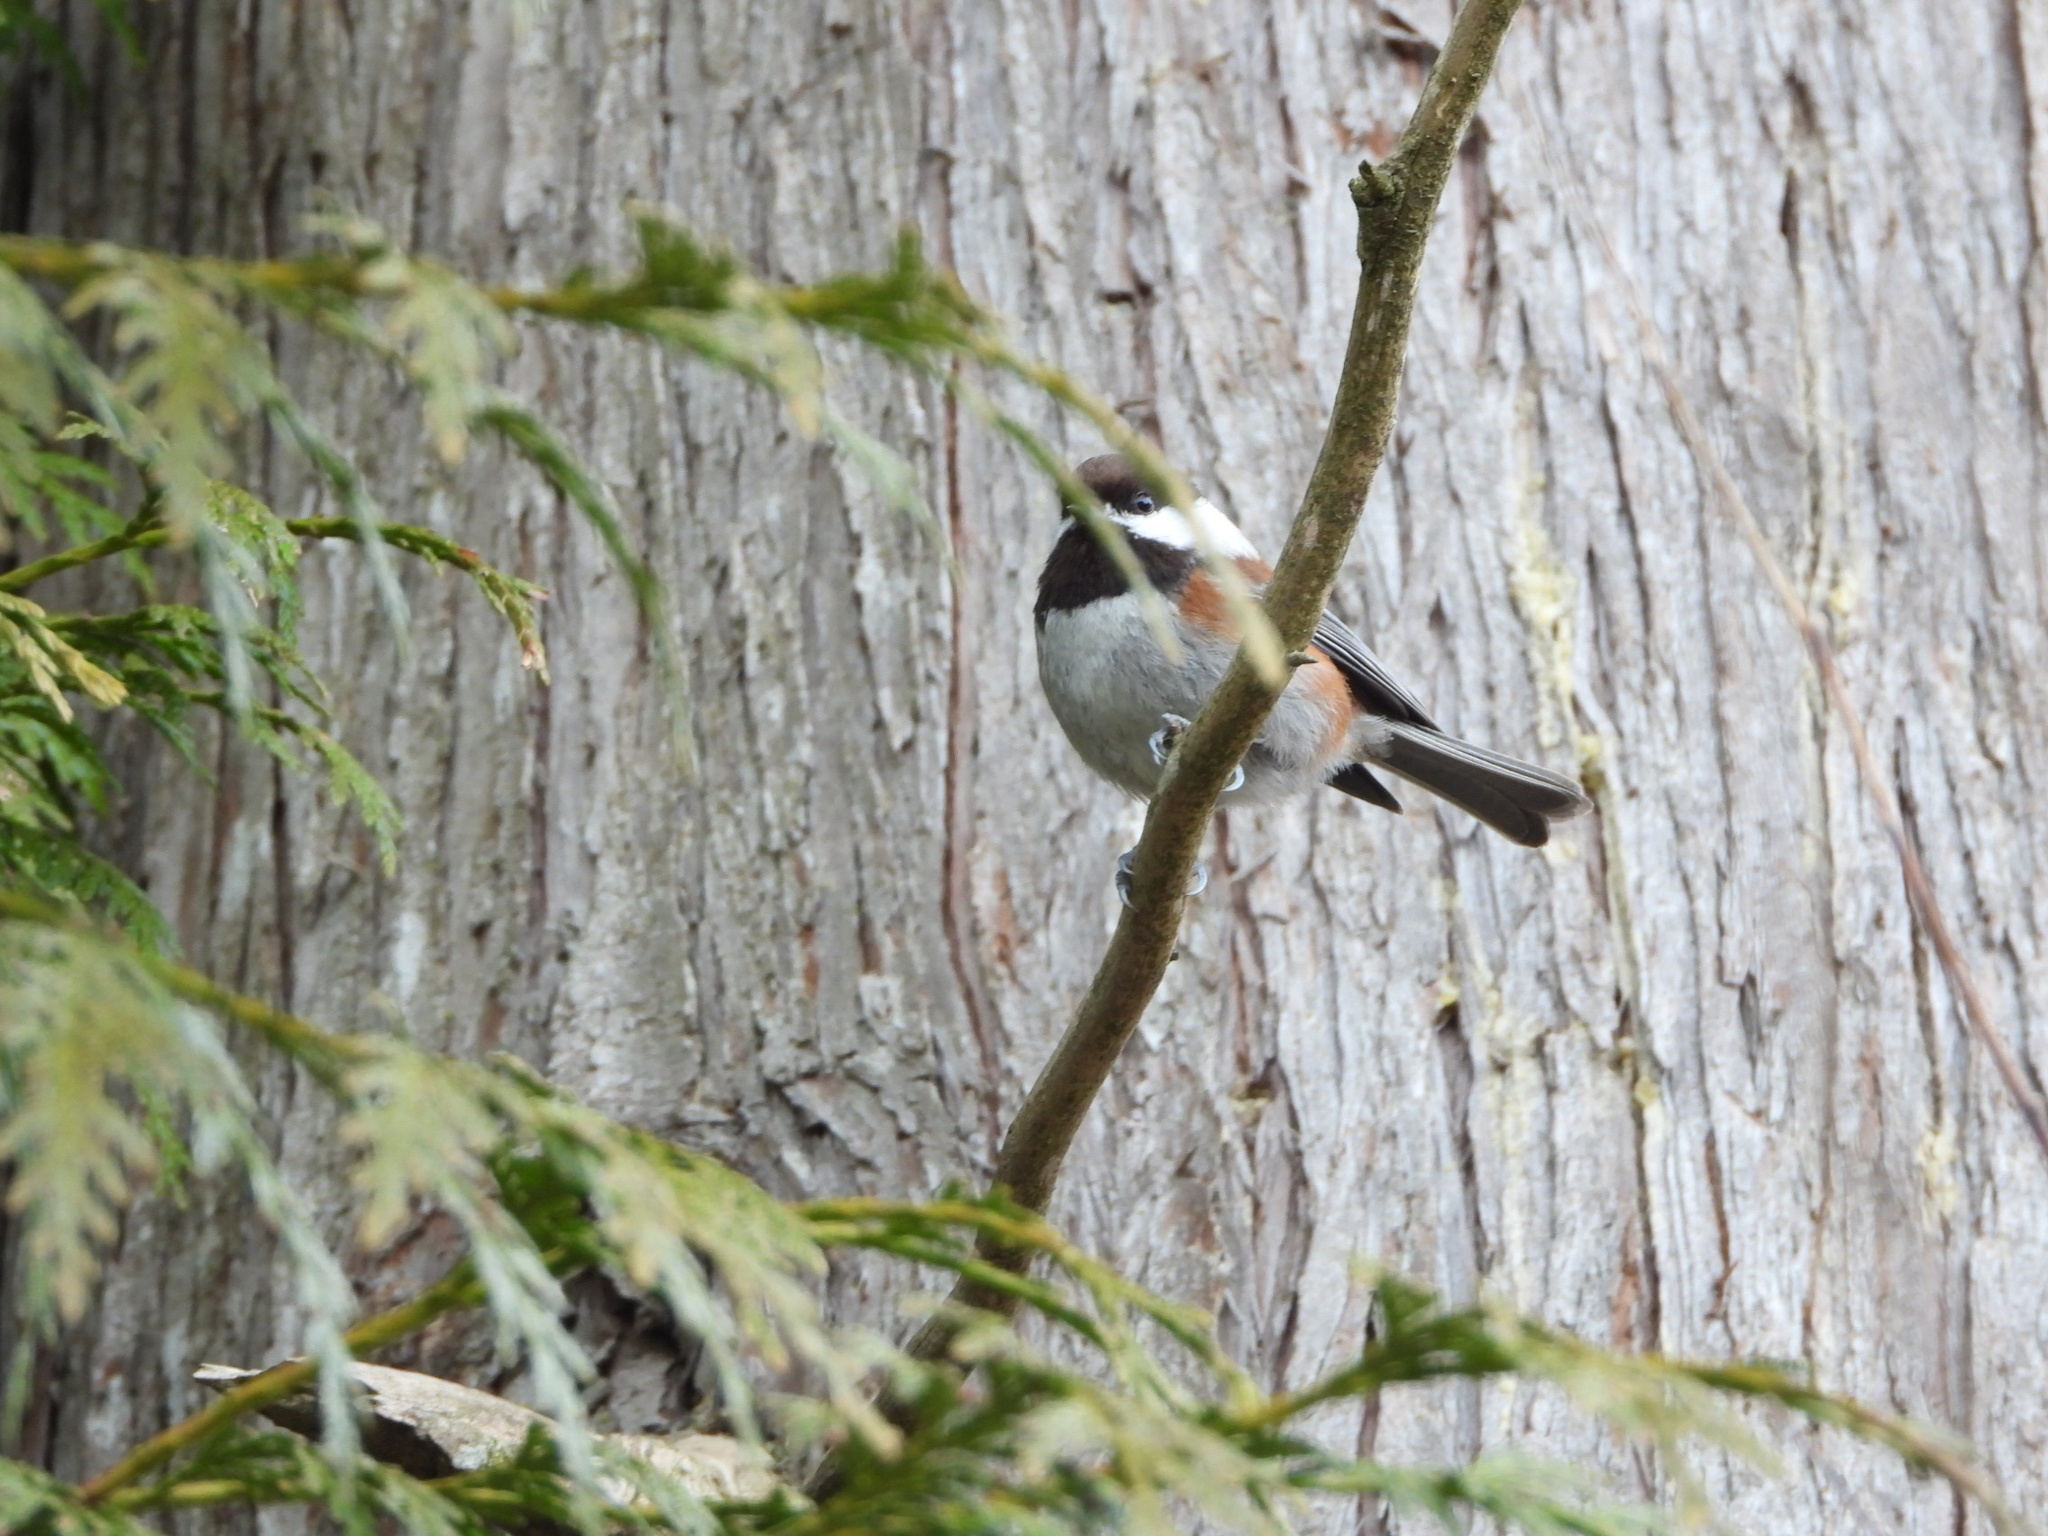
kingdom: Animalia
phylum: Chordata
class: Aves
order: Passeriformes
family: Paridae
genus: Poecile
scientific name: Poecile rufescens
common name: Chestnut-backed chickadee
